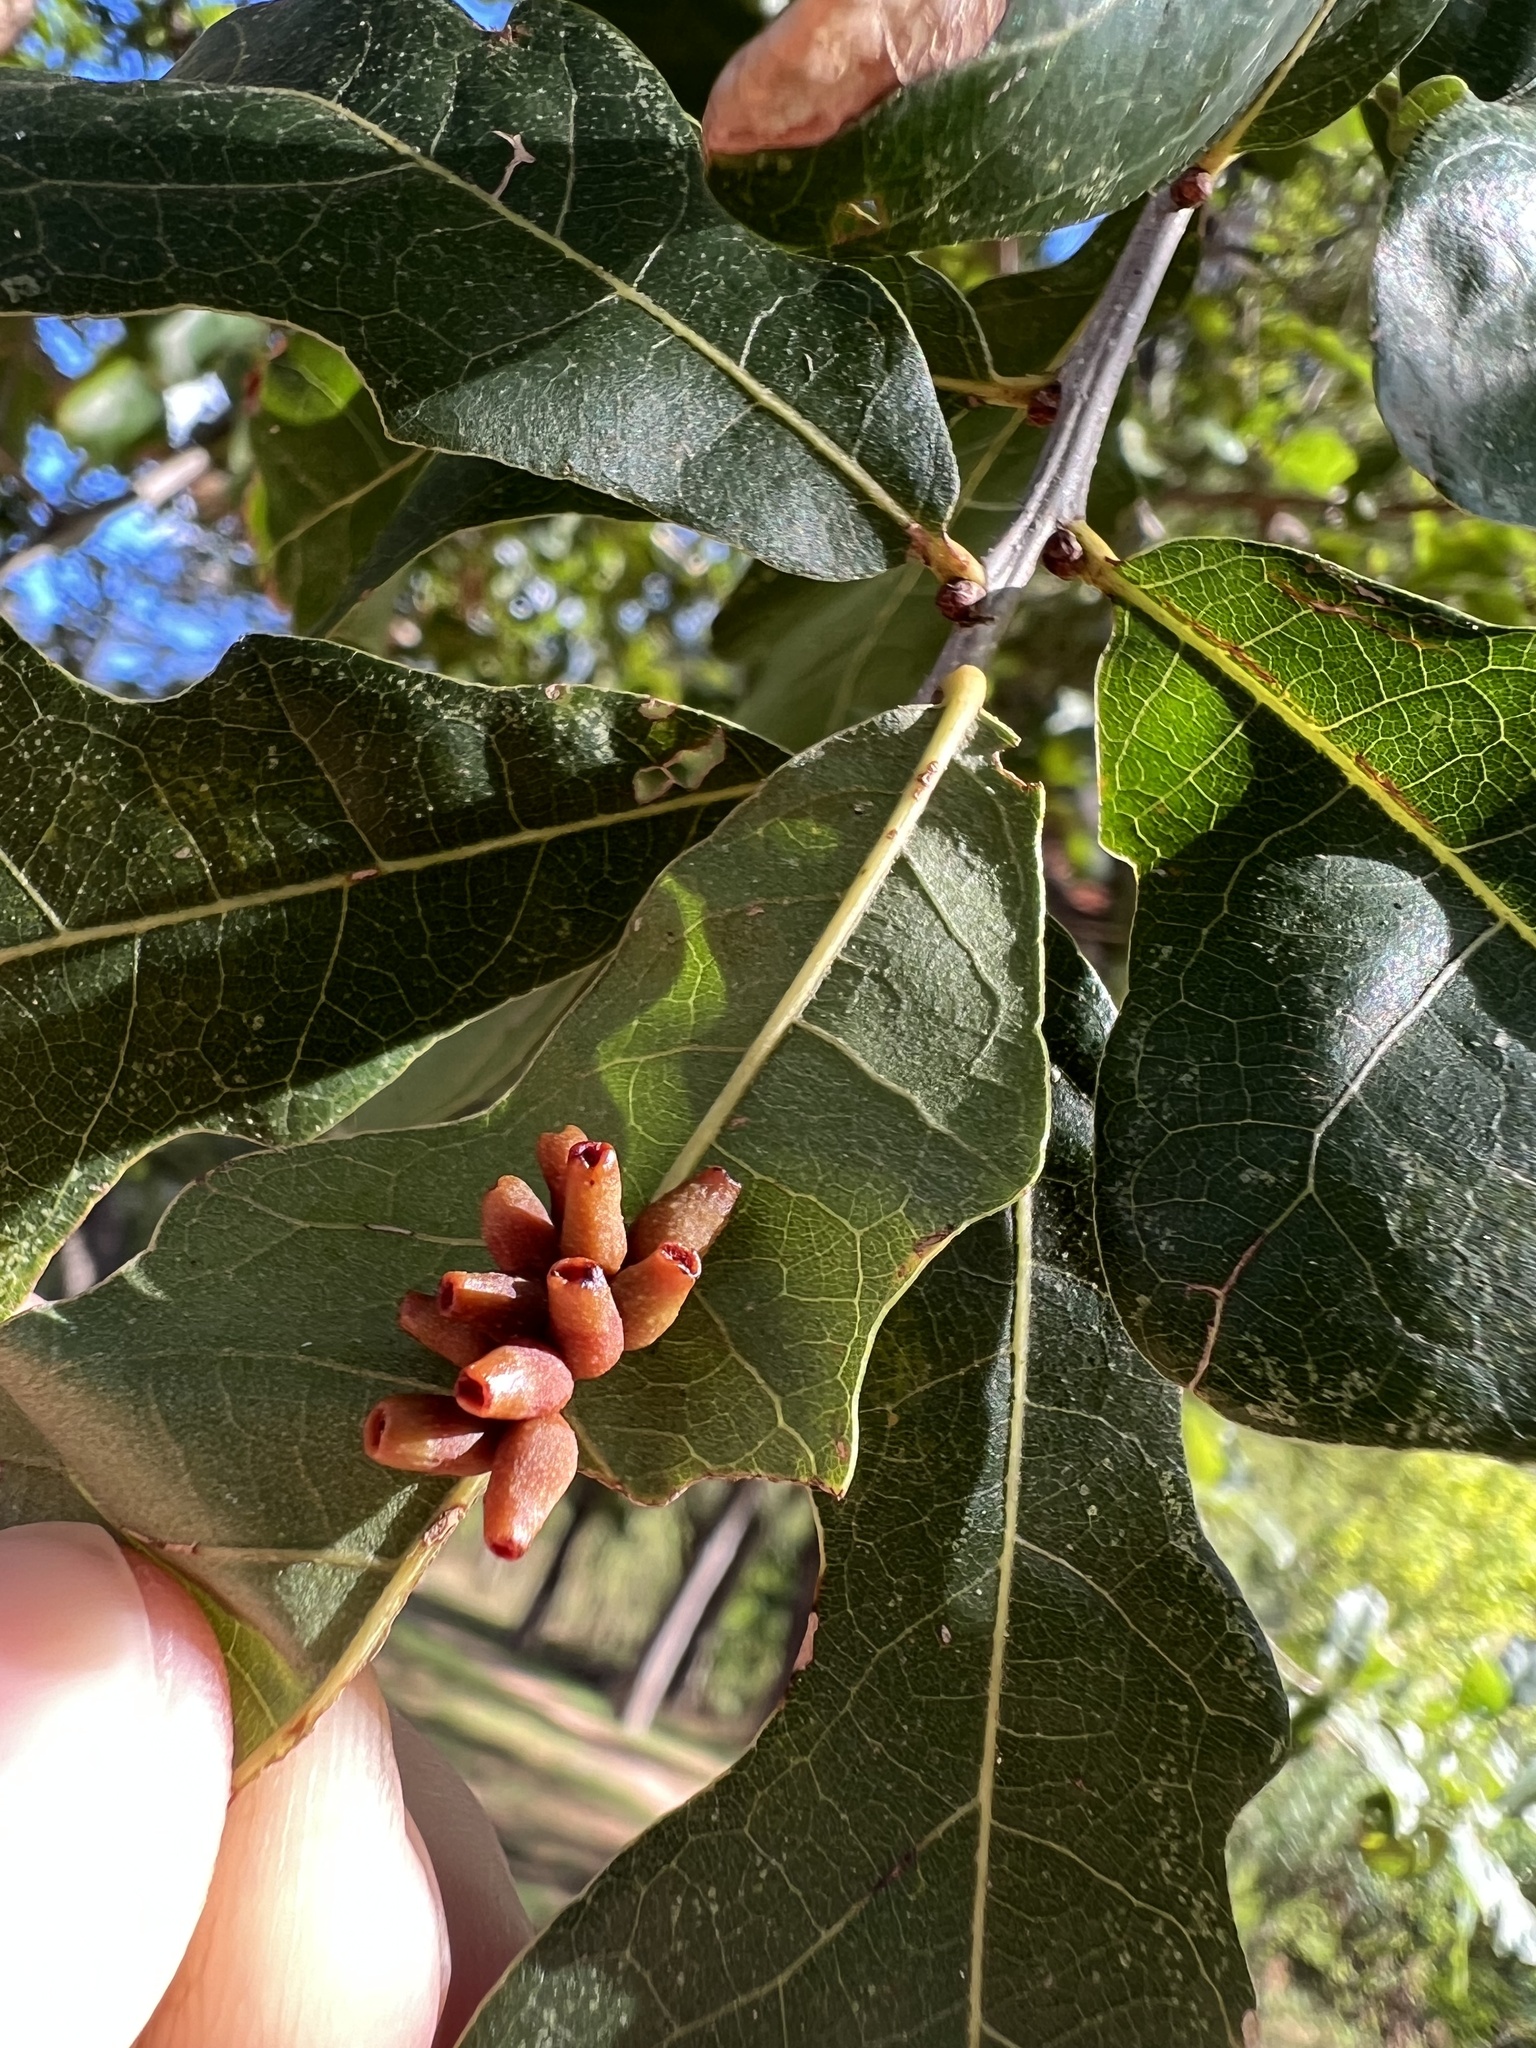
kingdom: Animalia
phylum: Arthropoda
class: Insecta
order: Hymenoptera
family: Cynipidae
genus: Andricus
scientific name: Andricus lustrans
